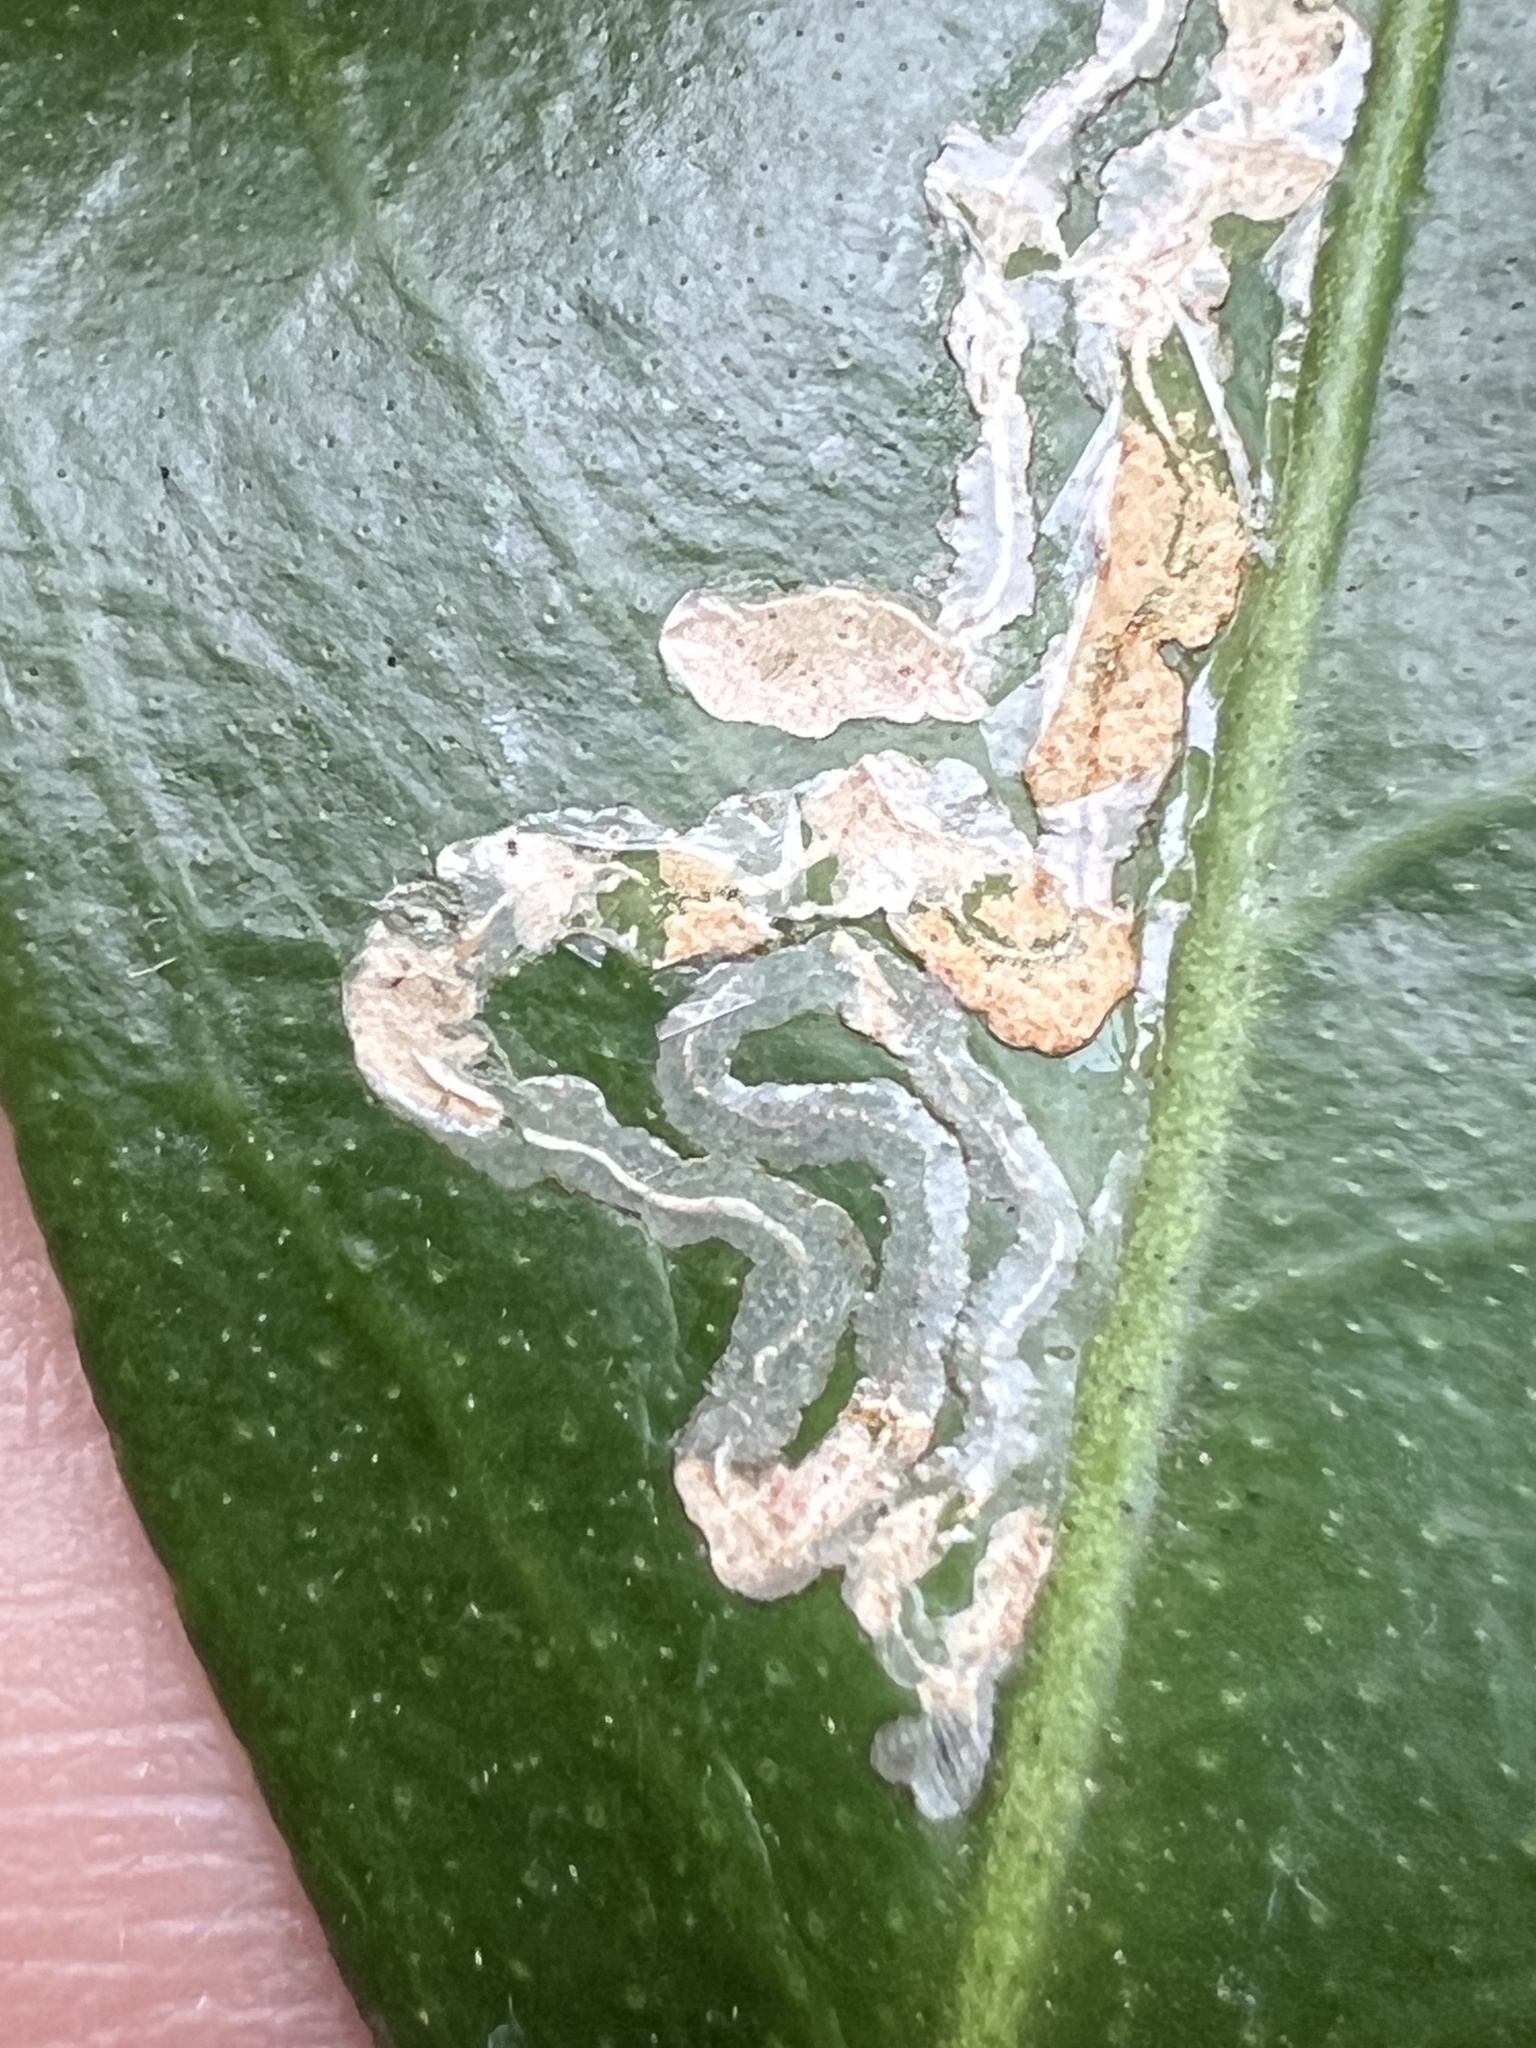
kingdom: Animalia
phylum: Arthropoda
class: Insecta
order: Lepidoptera
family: Gracillariidae
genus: Phyllocnistis
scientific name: Phyllocnistis citrella
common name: Citrus leafminer
